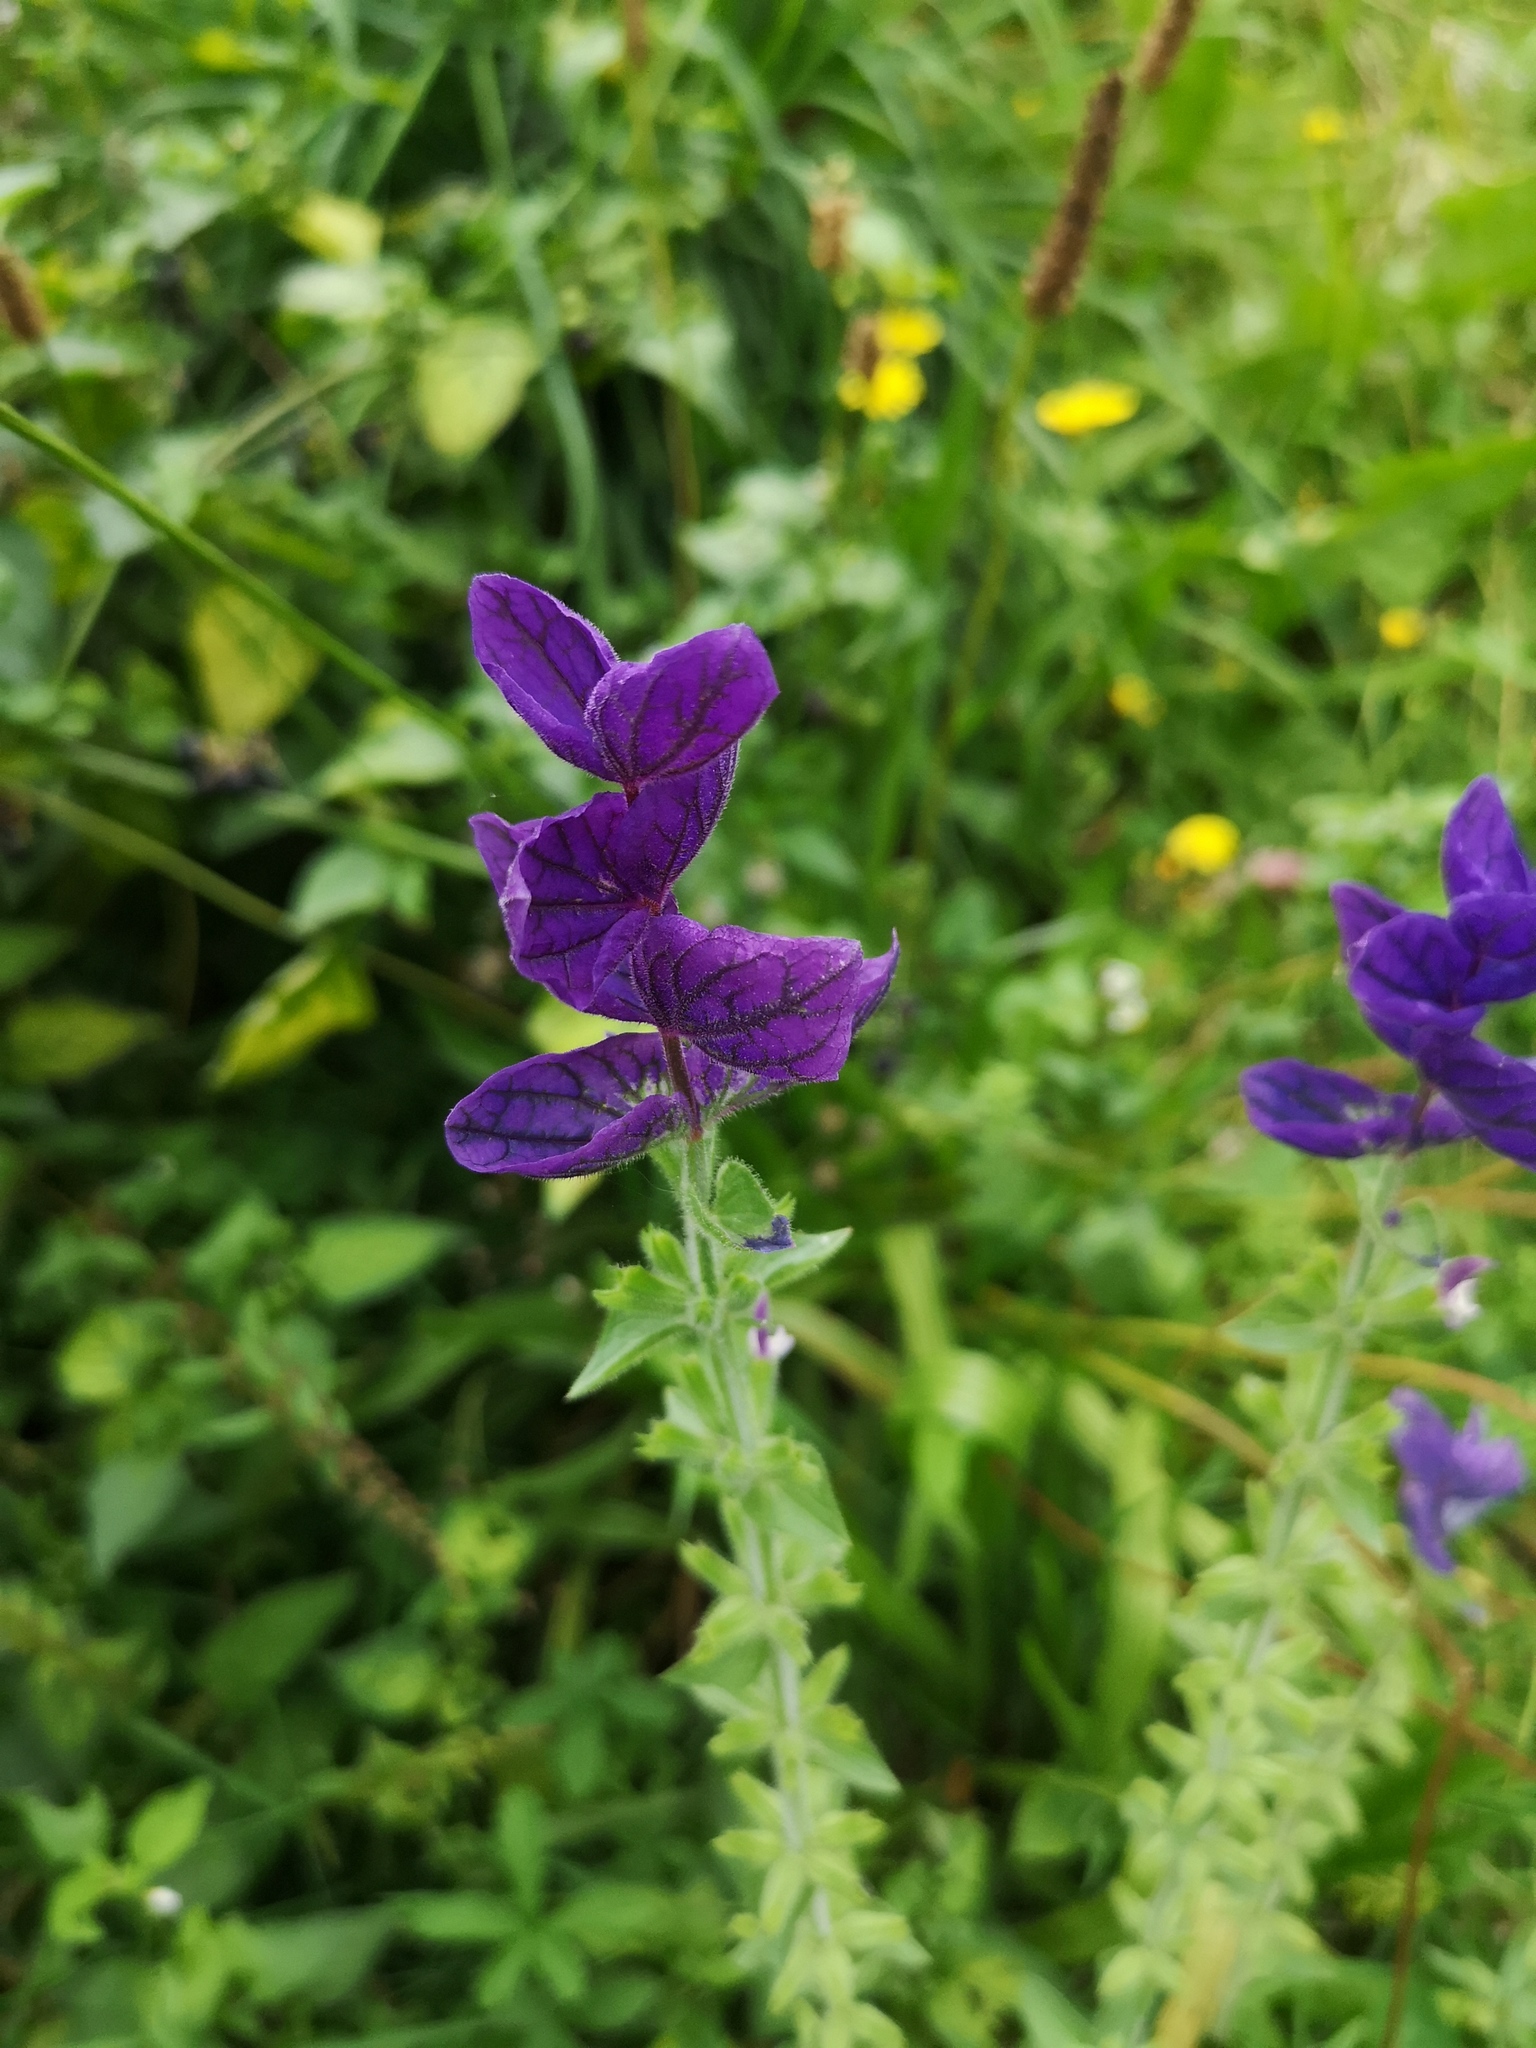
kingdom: Plantae
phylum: Tracheophyta
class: Magnoliopsida
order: Lamiales
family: Lamiaceae
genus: Salvia
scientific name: Salvia viridis
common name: Annual clary
